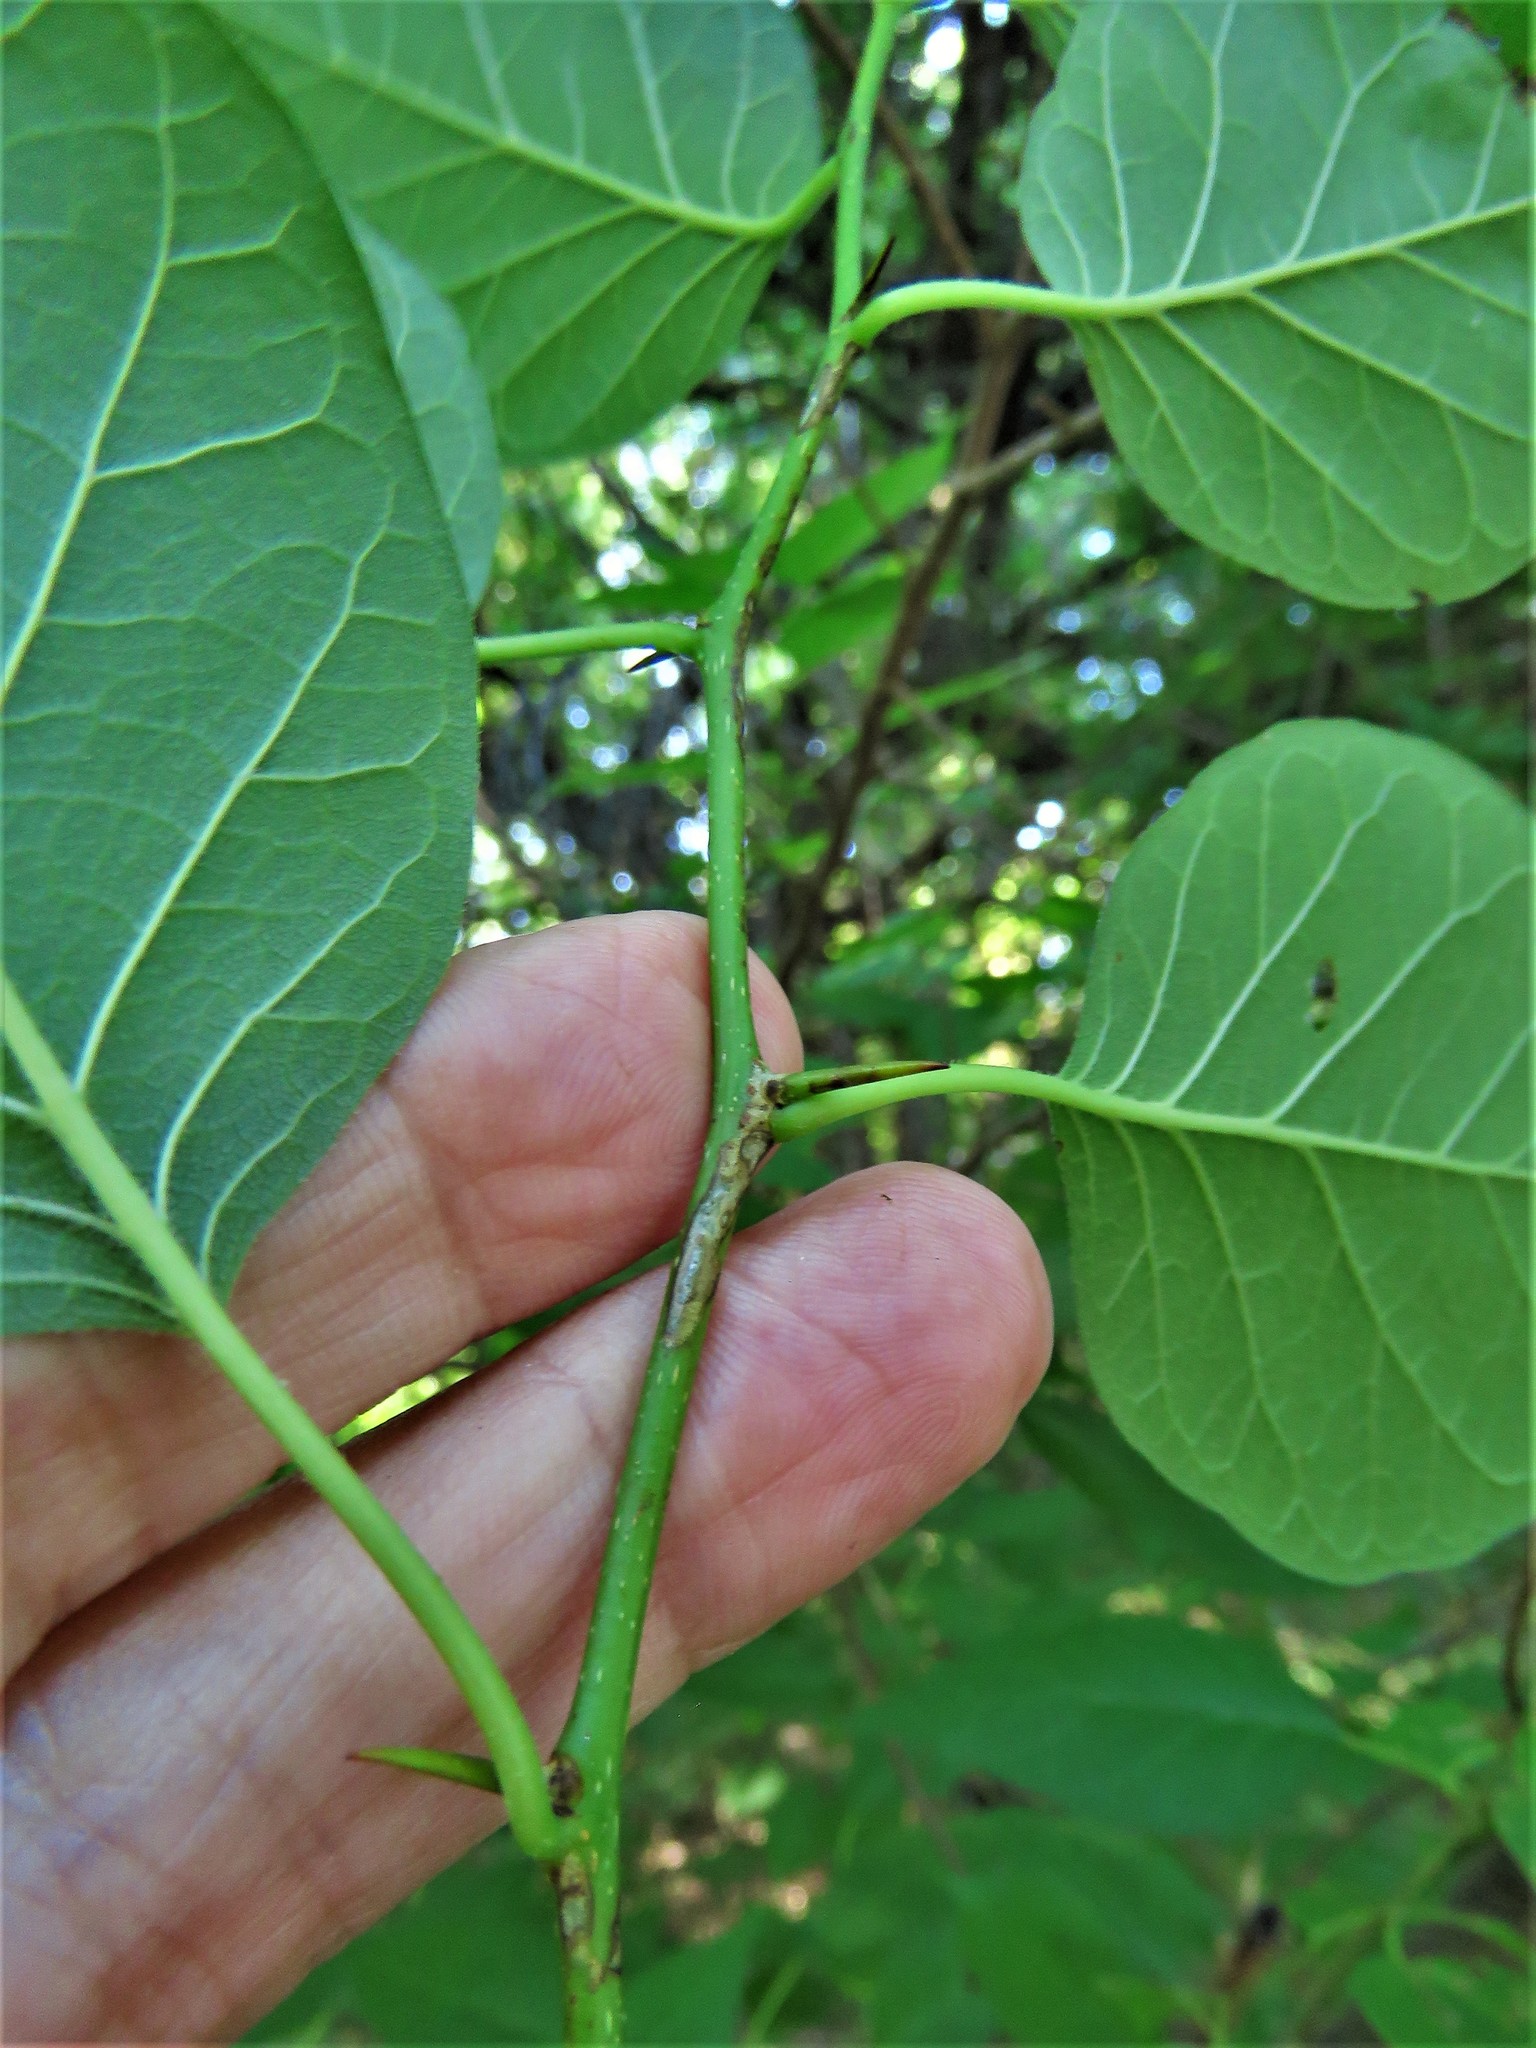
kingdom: Plantae
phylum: Tracheophyta
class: Magnoliopsida
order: Rosales
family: Moraceae
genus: Maclura
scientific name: Maclura pomifera
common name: Osage-orange
